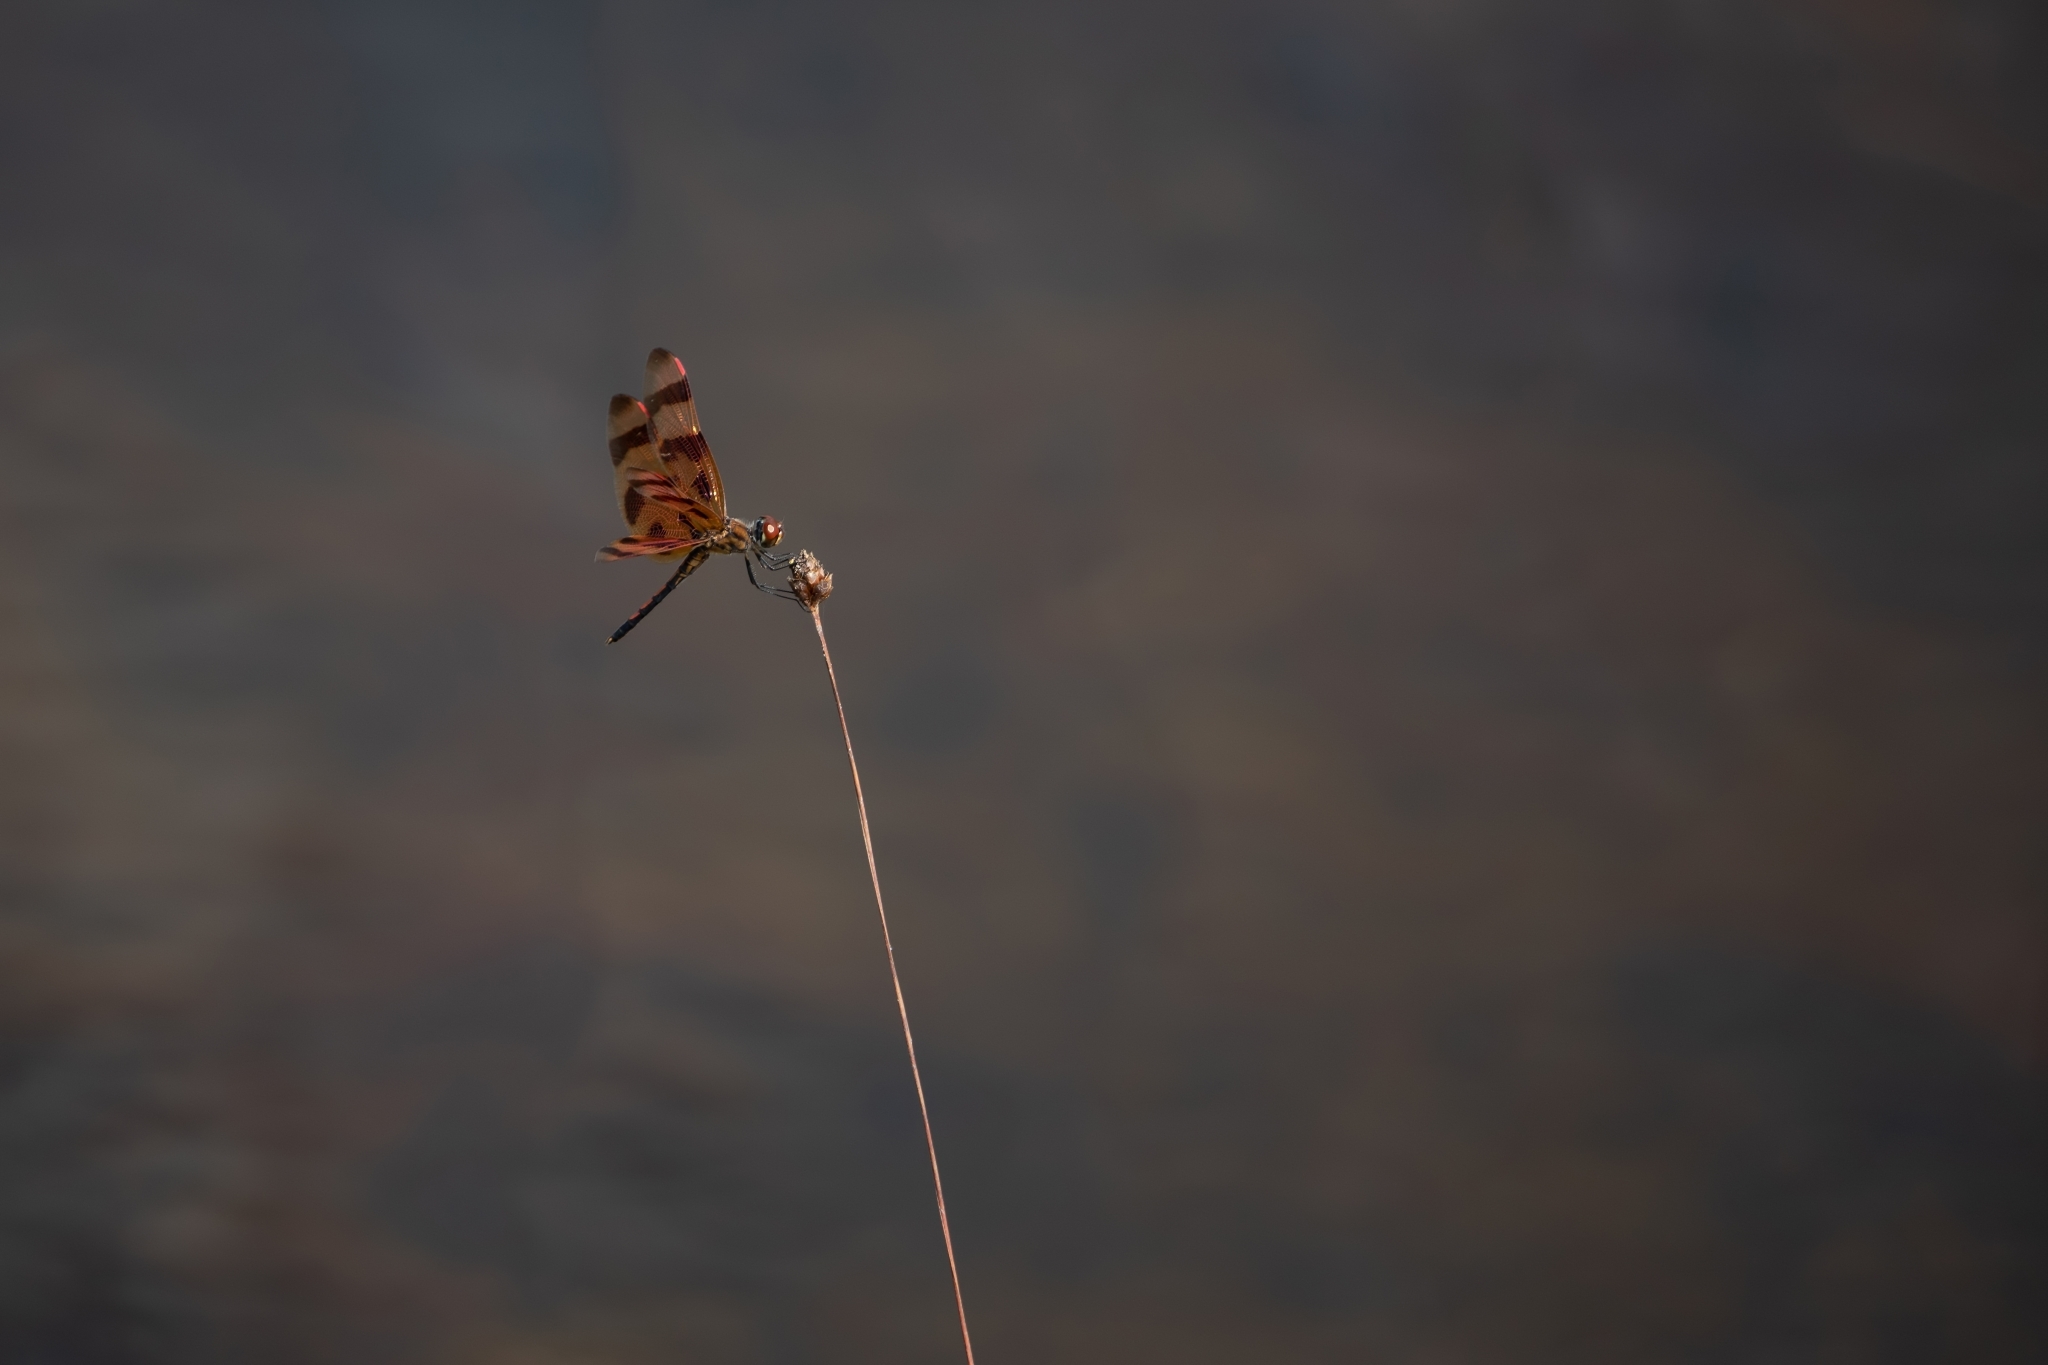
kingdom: Animalia
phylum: Arthropoda
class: Insecta
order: Odonata
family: Libellulidae
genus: Celithemis
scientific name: Celithemis eponina
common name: Halloween pennant
